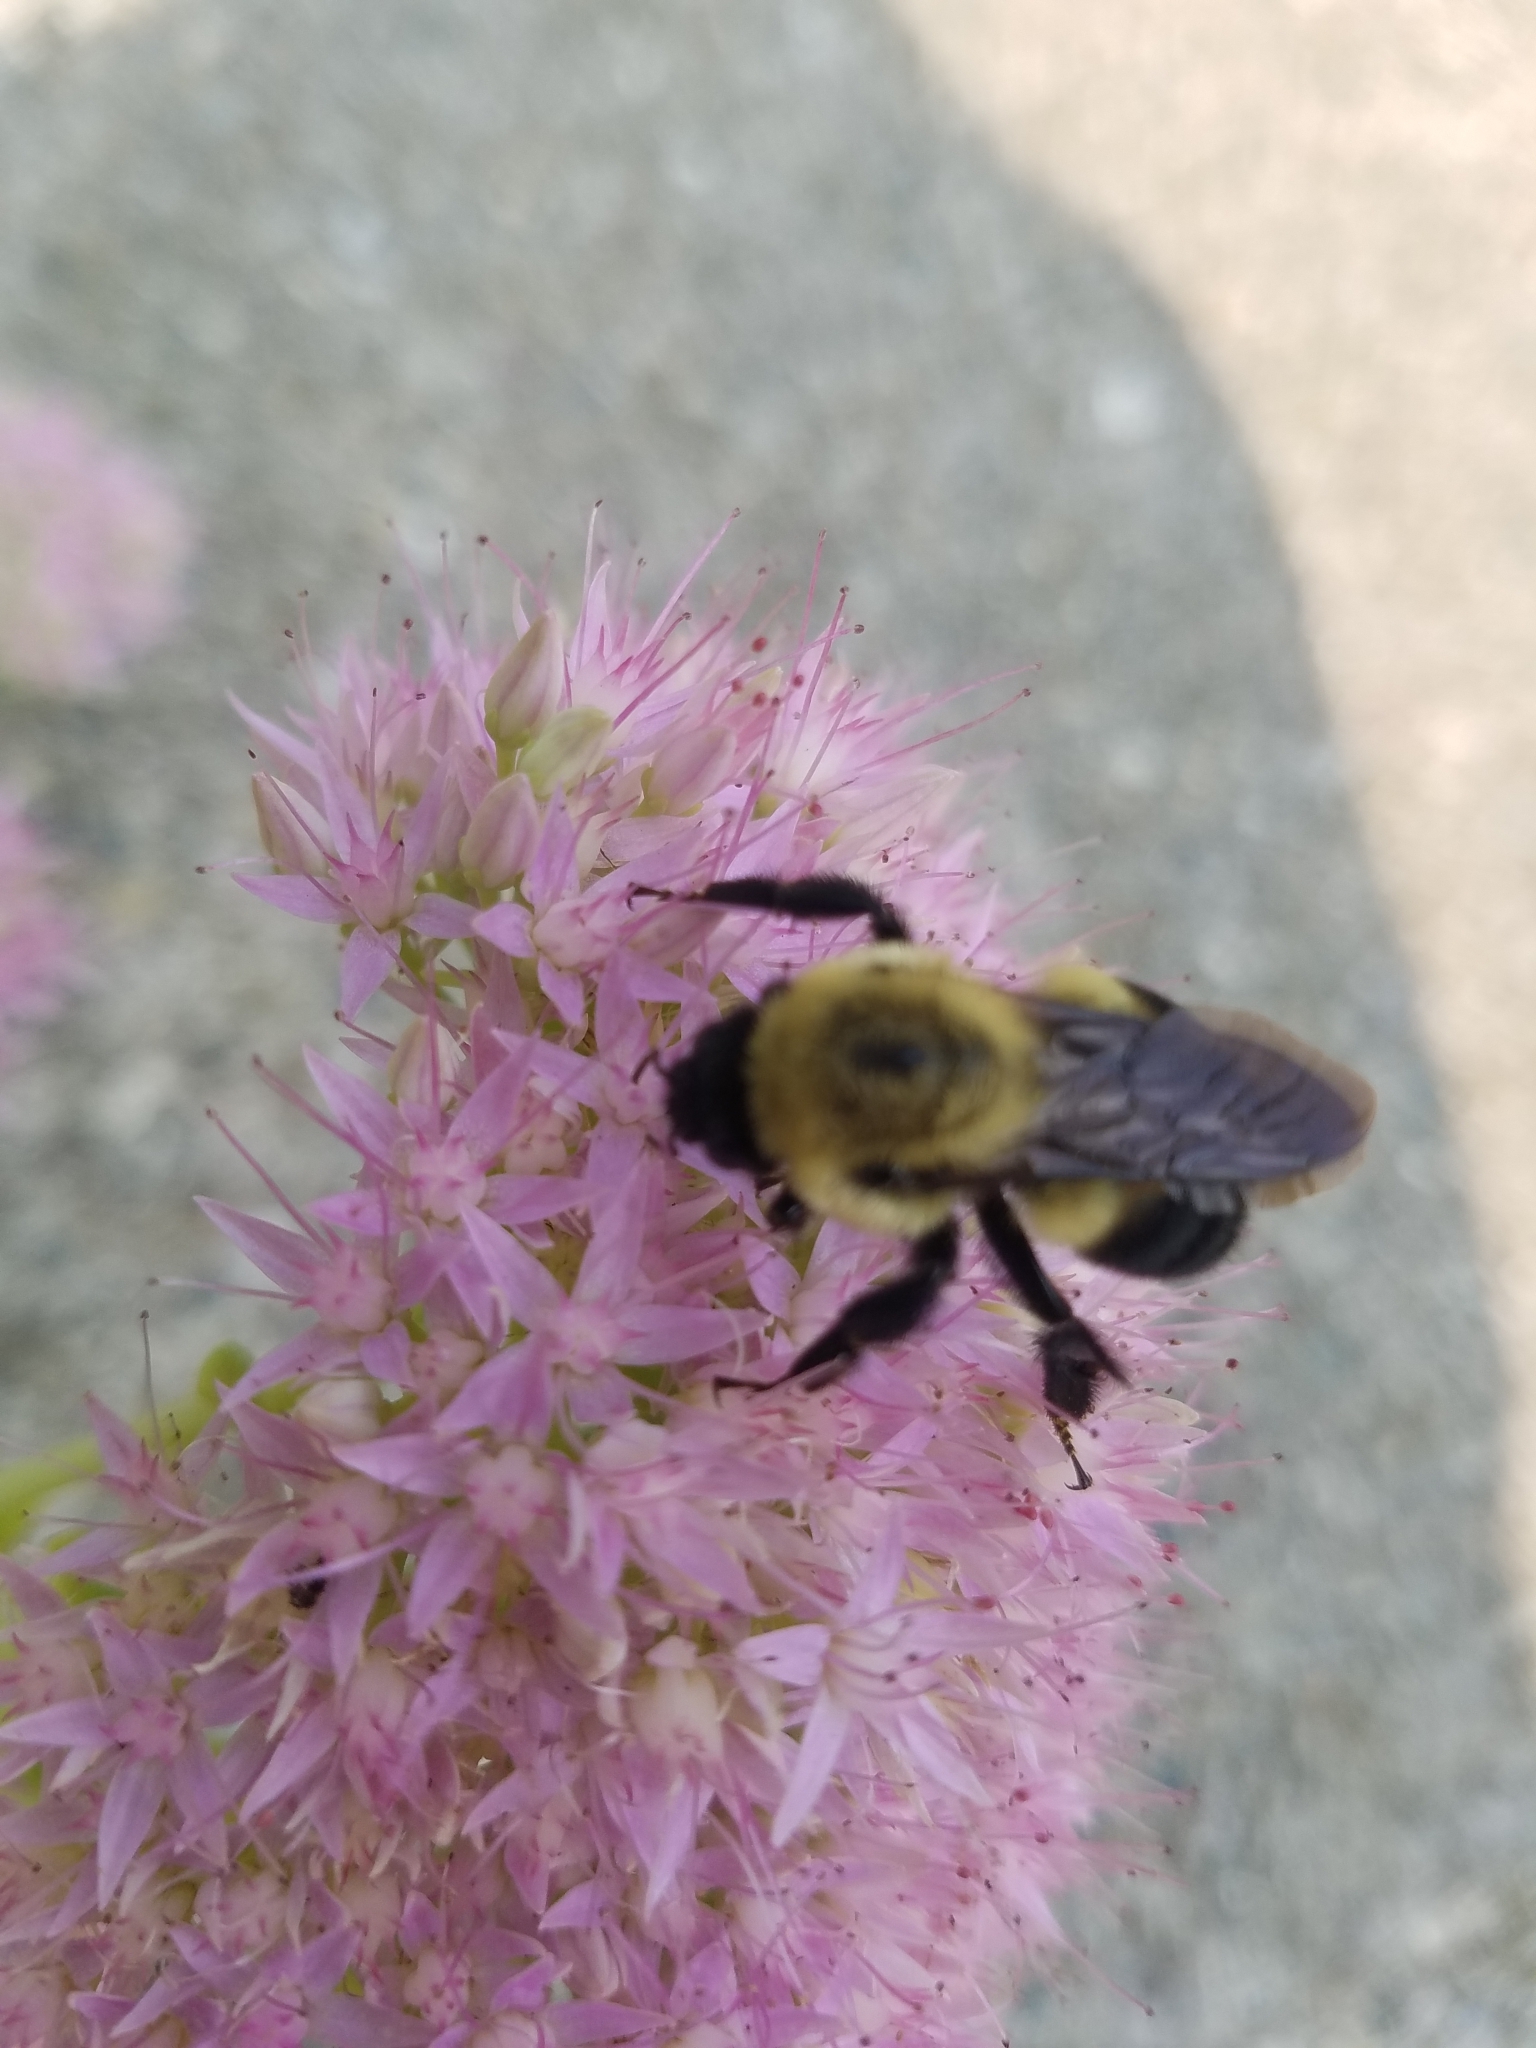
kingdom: Animalia
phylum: Arthropoda
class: Insecta
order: Hymenoptera
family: Apidae
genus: Bombus
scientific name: Bombus griseocollis
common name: Brown-belted bumble bee
